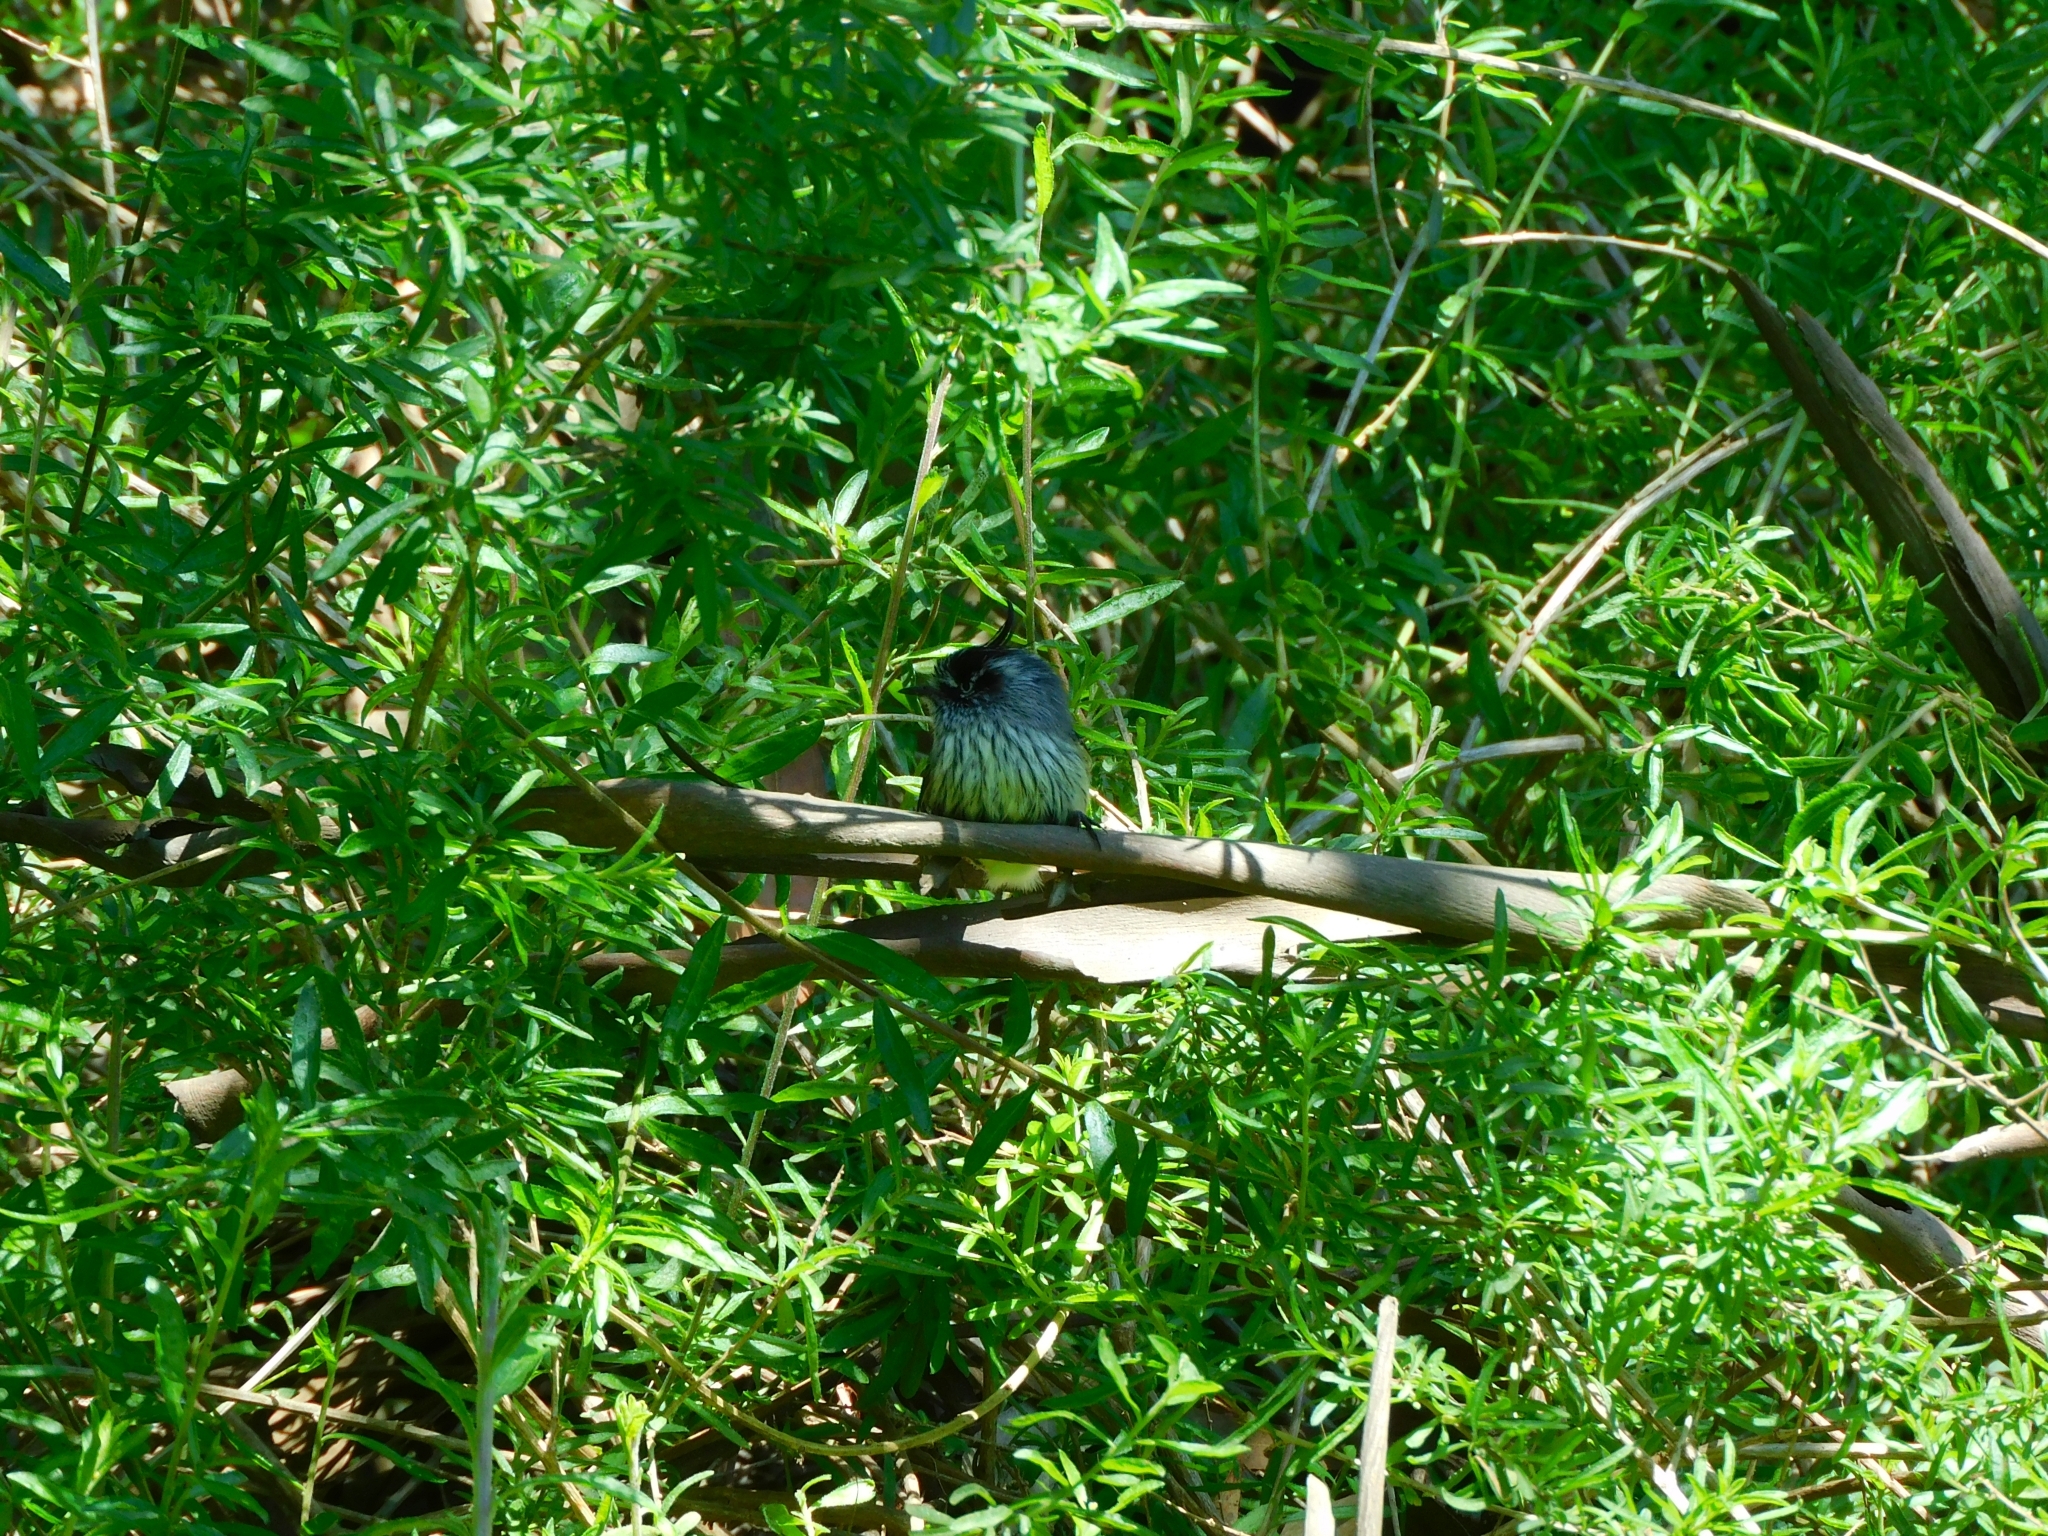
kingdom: Animalia
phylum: Chordata
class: Aves
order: Passeriformes
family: Tyrannidae
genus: Anairetes
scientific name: Anairetes parulus
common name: Tufted tit-tyrant
